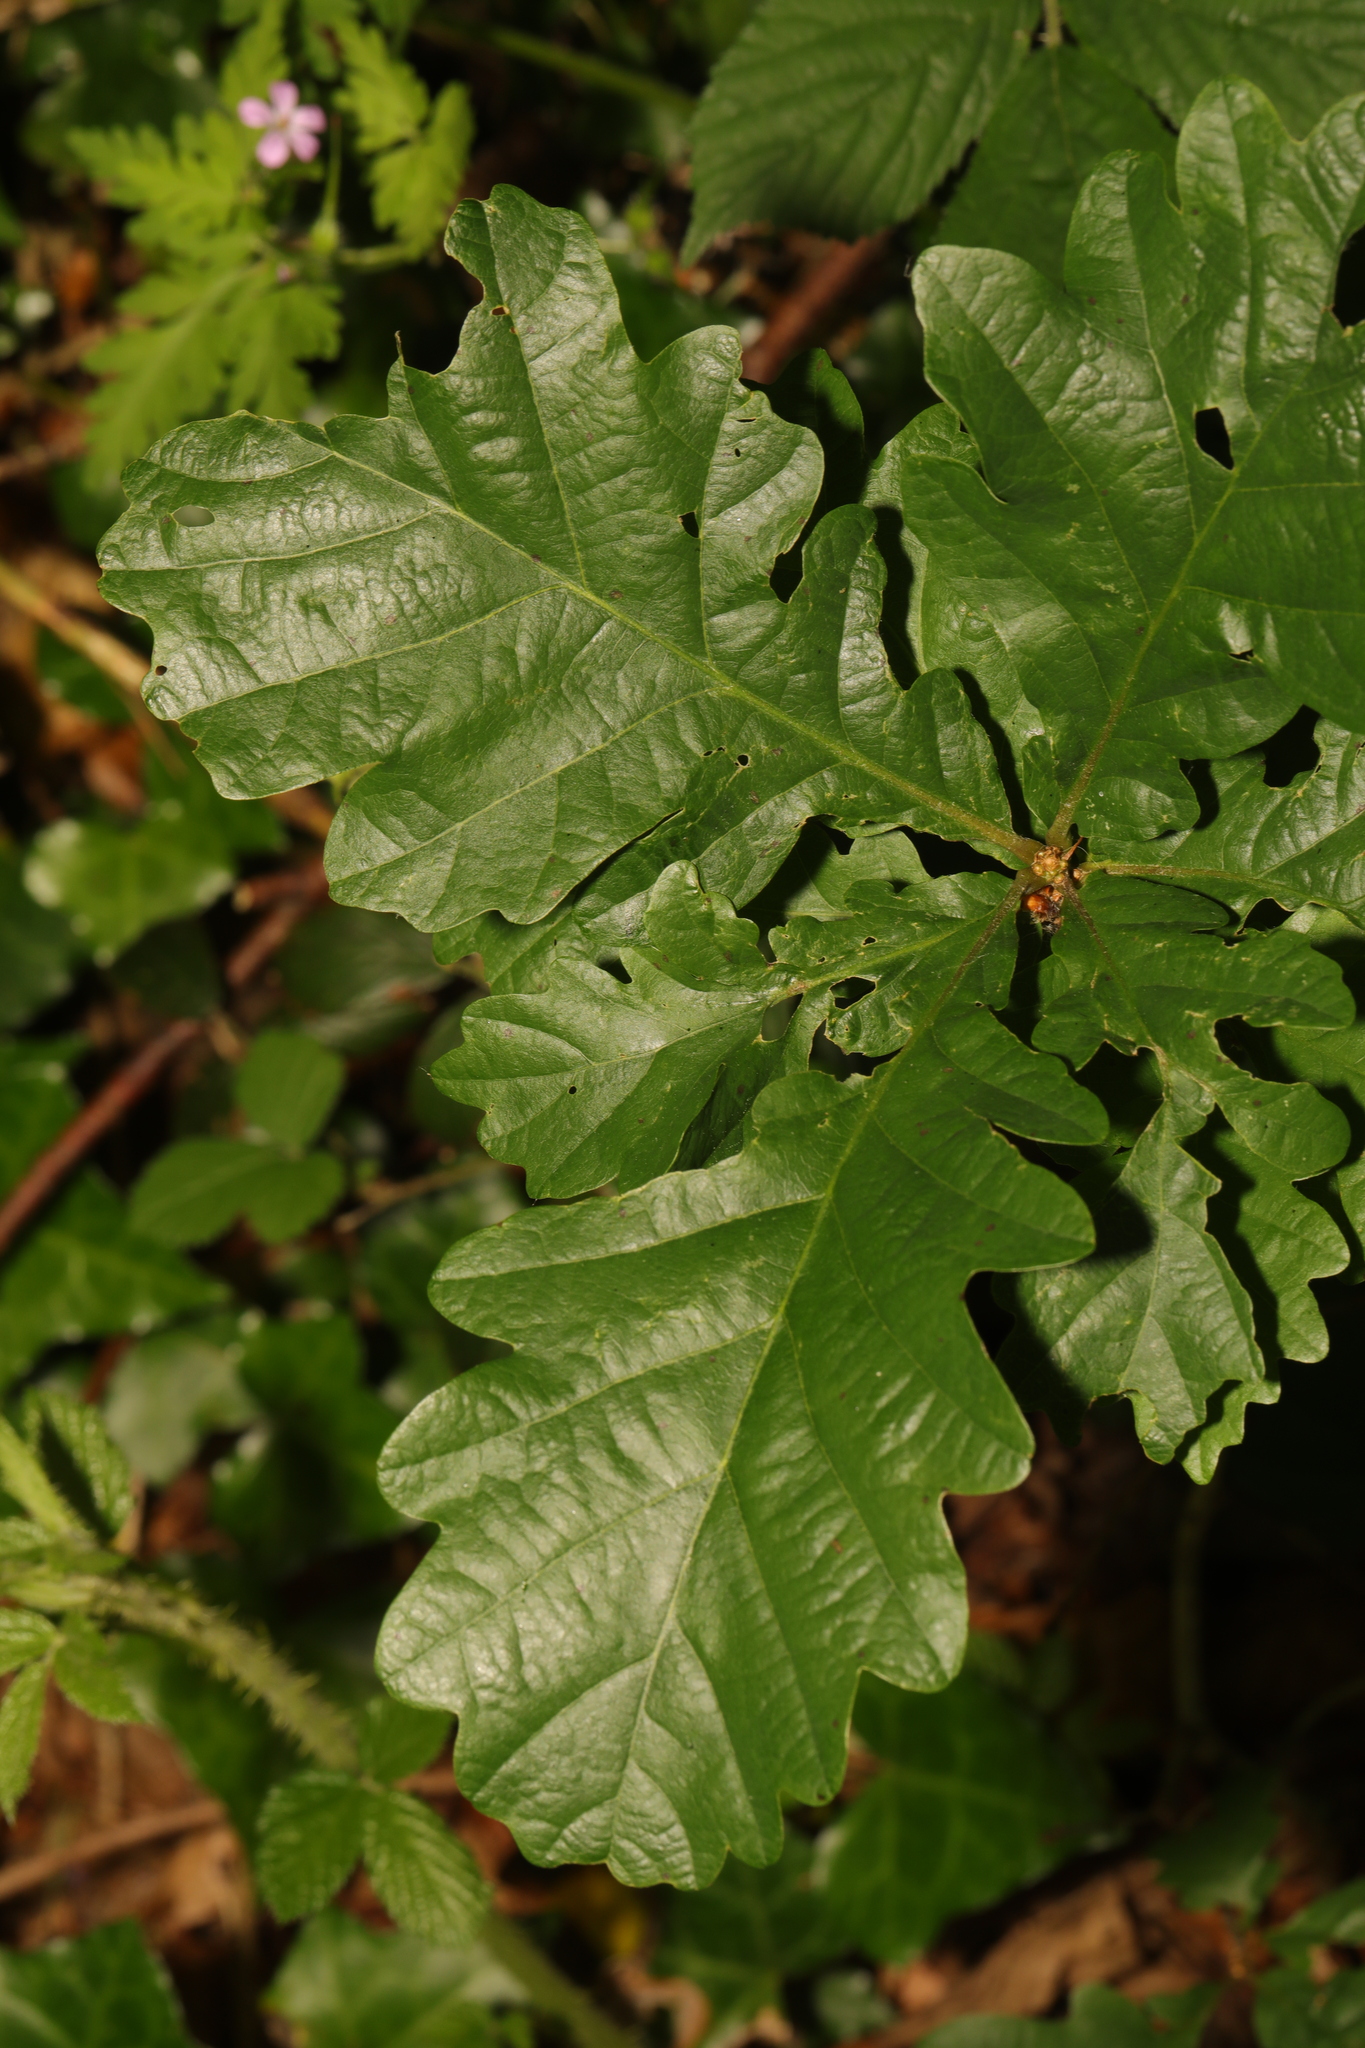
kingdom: Plantae
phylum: Tracheophyta
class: Magnoliopsida
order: Fagales
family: Fagaceae
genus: Quercus
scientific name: Quercus robur
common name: Pedunculate oak
